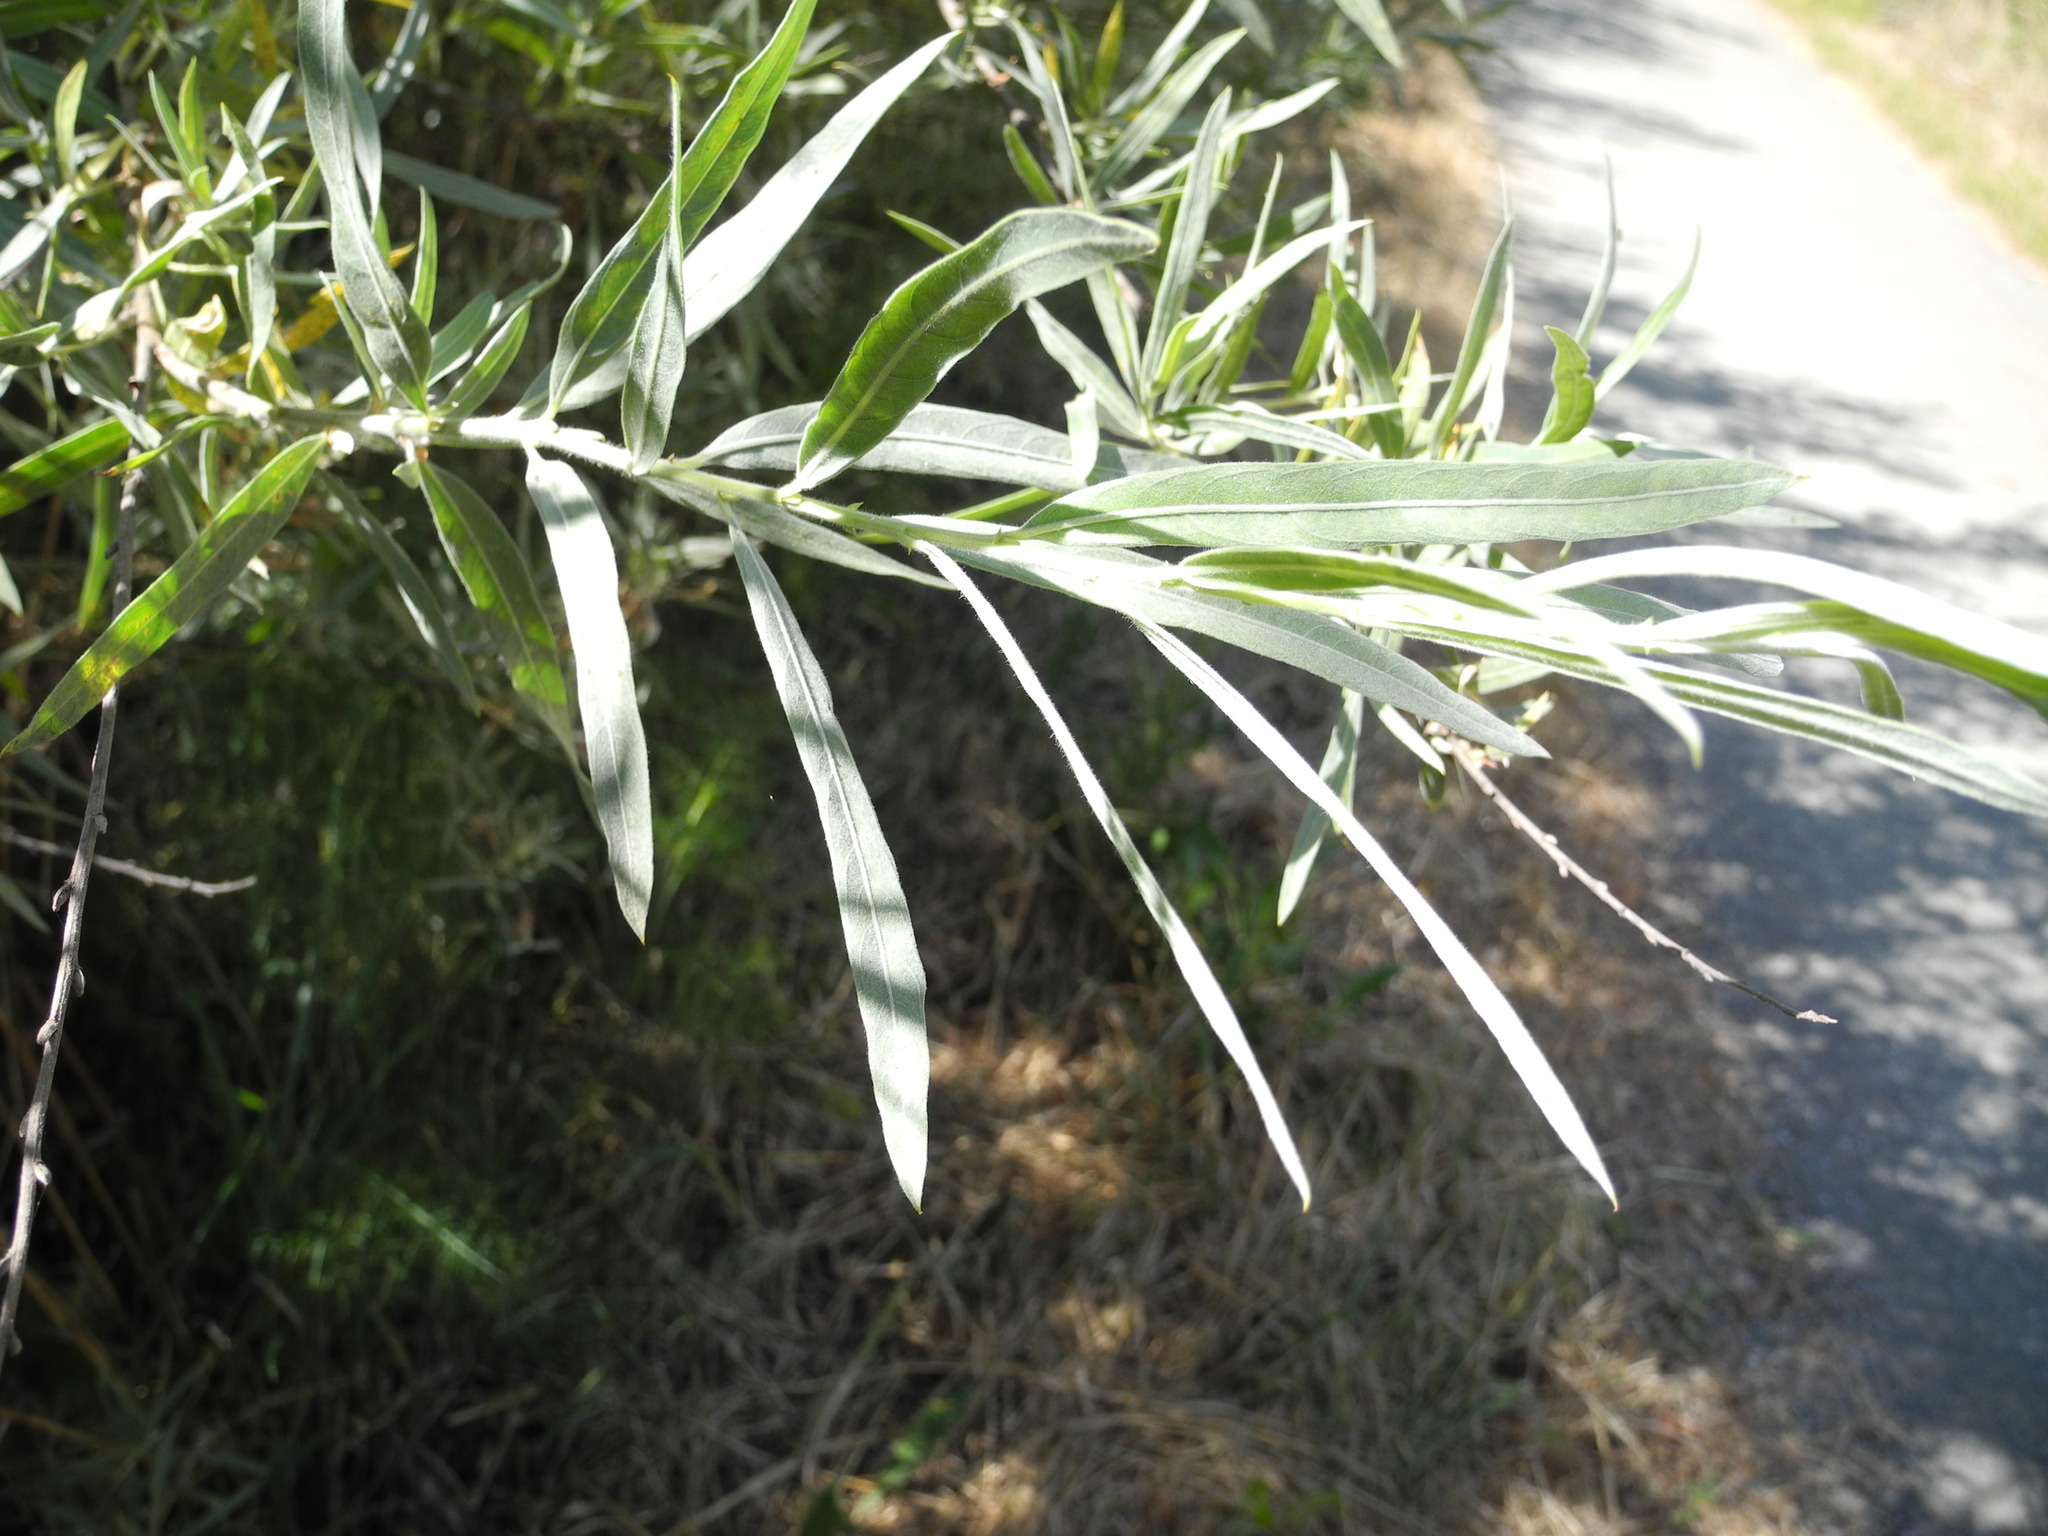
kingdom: Plantae
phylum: Tracheophyta
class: Magnoliopsida
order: Malpighiales
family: Salicaceae
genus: Salix
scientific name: Salix exigua
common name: Coyote willow
